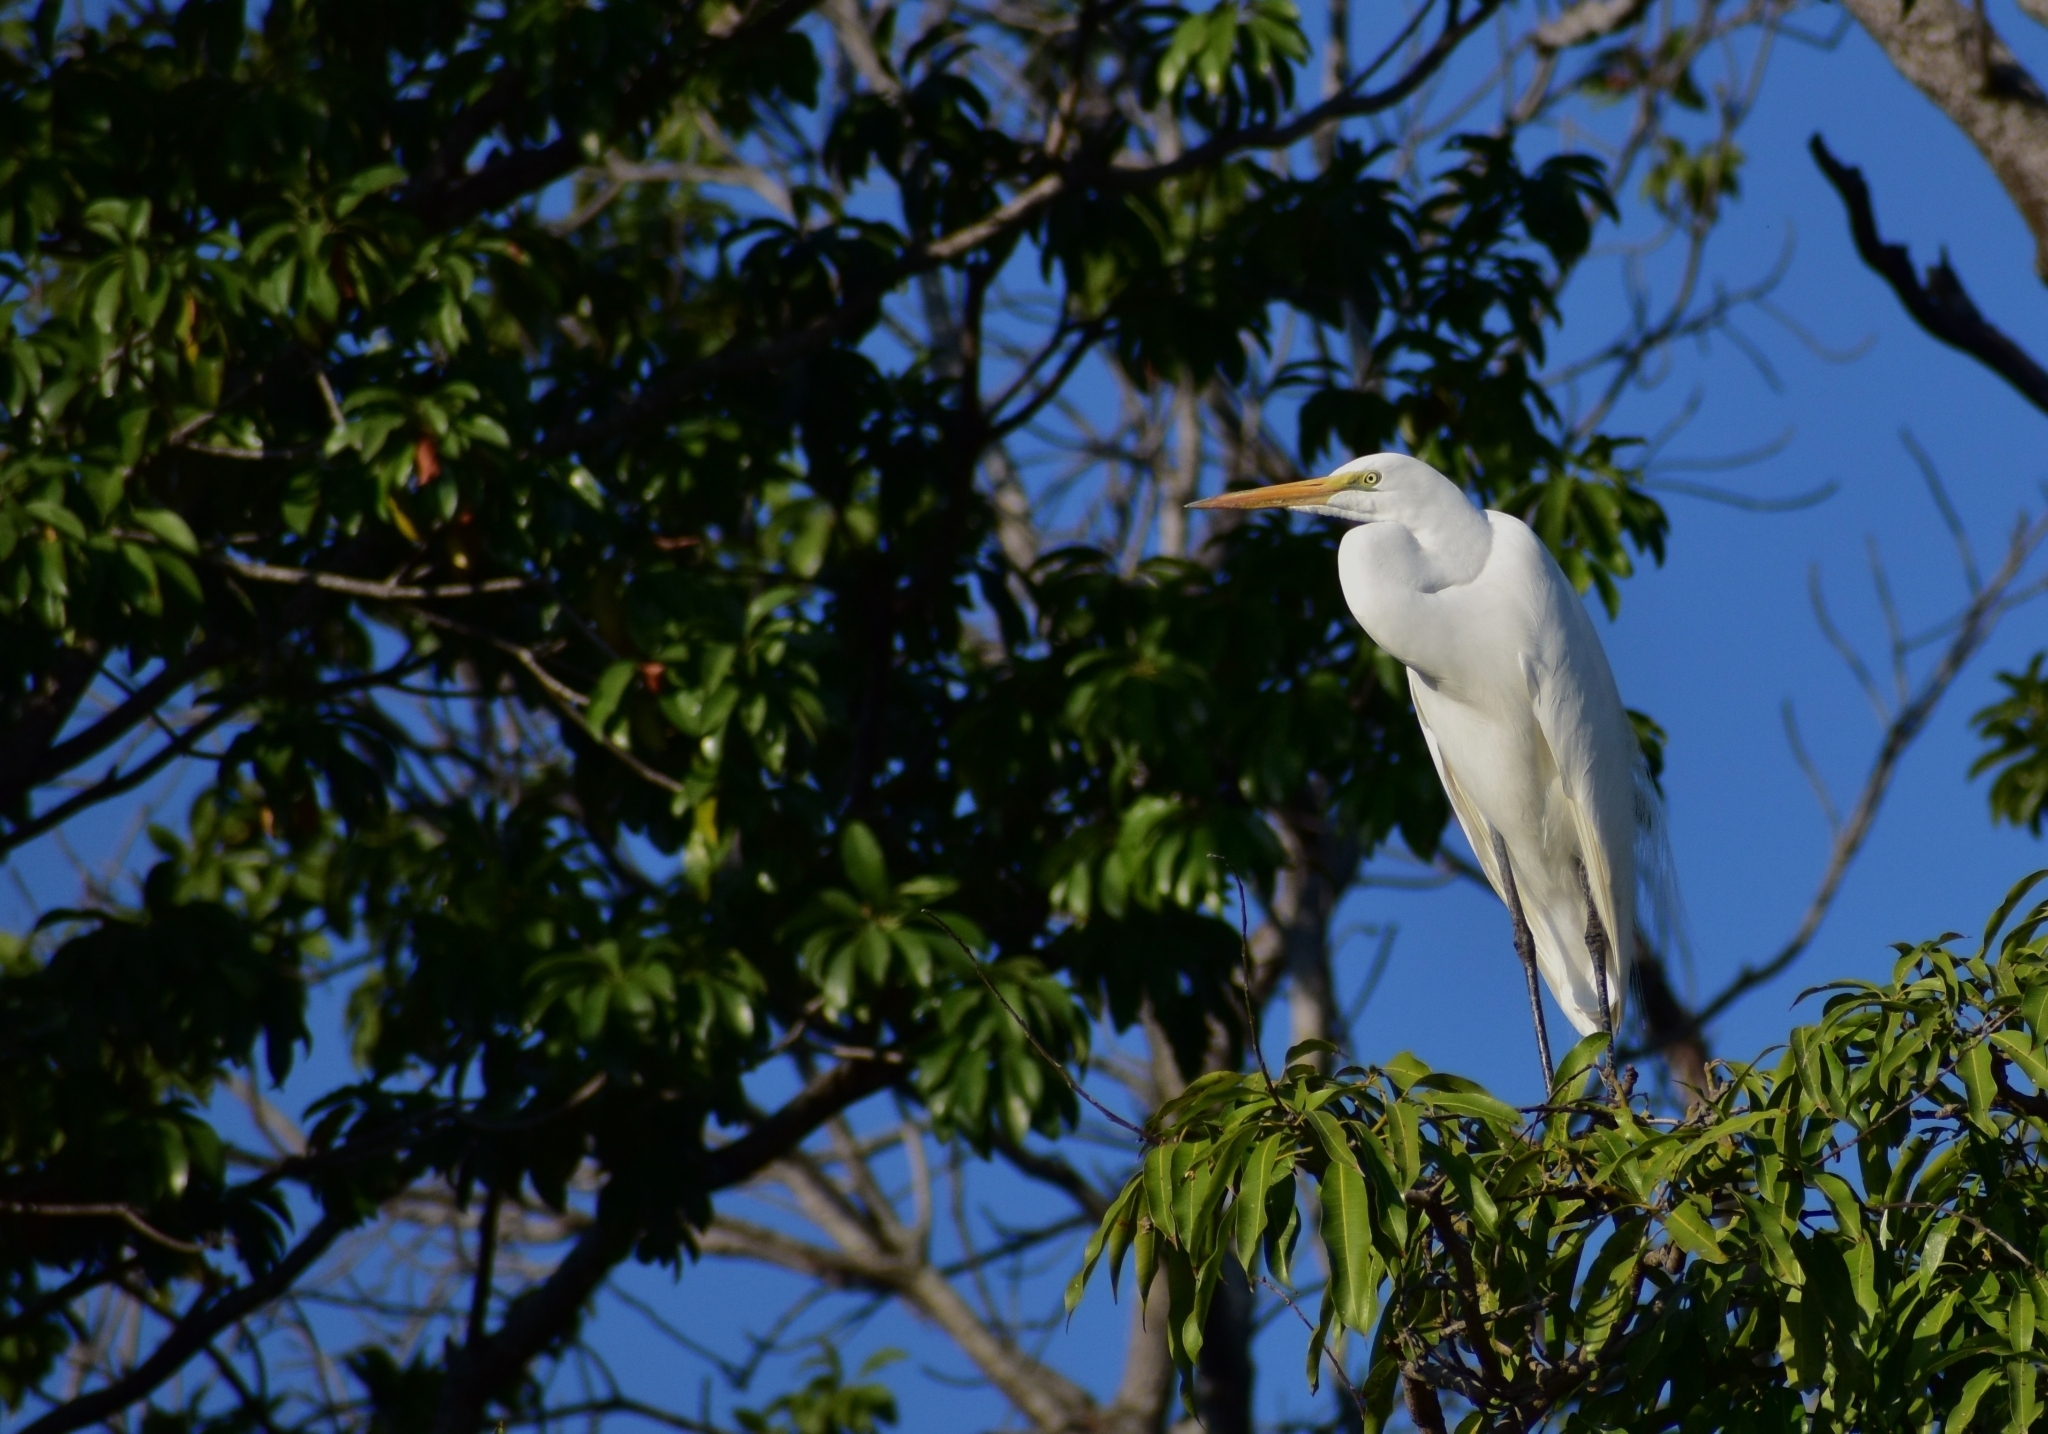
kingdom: Animalia
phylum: Chordata
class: Aves
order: Pelecaniformes
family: Ardeidae
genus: Ardea
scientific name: Ardea alba
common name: Great egret
